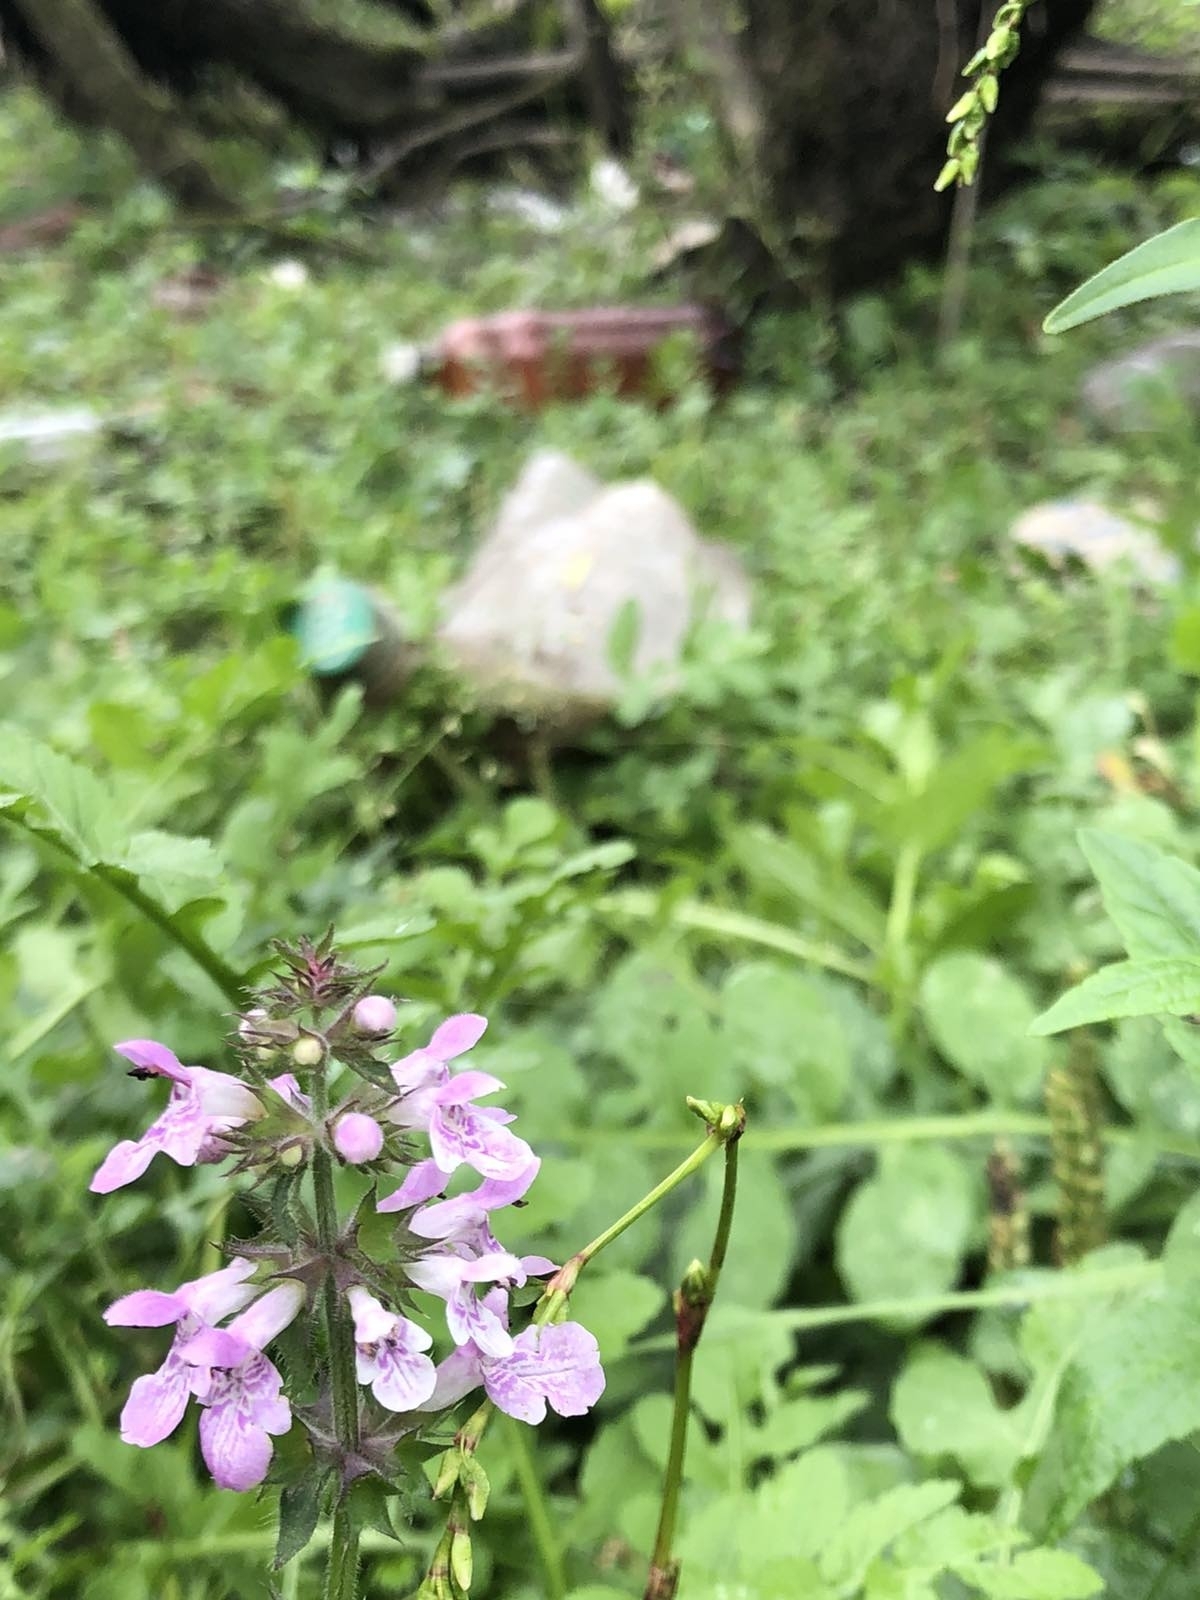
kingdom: Plantae
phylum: Tracheophyta
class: Magnoliopsida
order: Lamiales
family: Lamiaceae
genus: Stachys
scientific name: Stachys palustris
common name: Marsh woundwort
